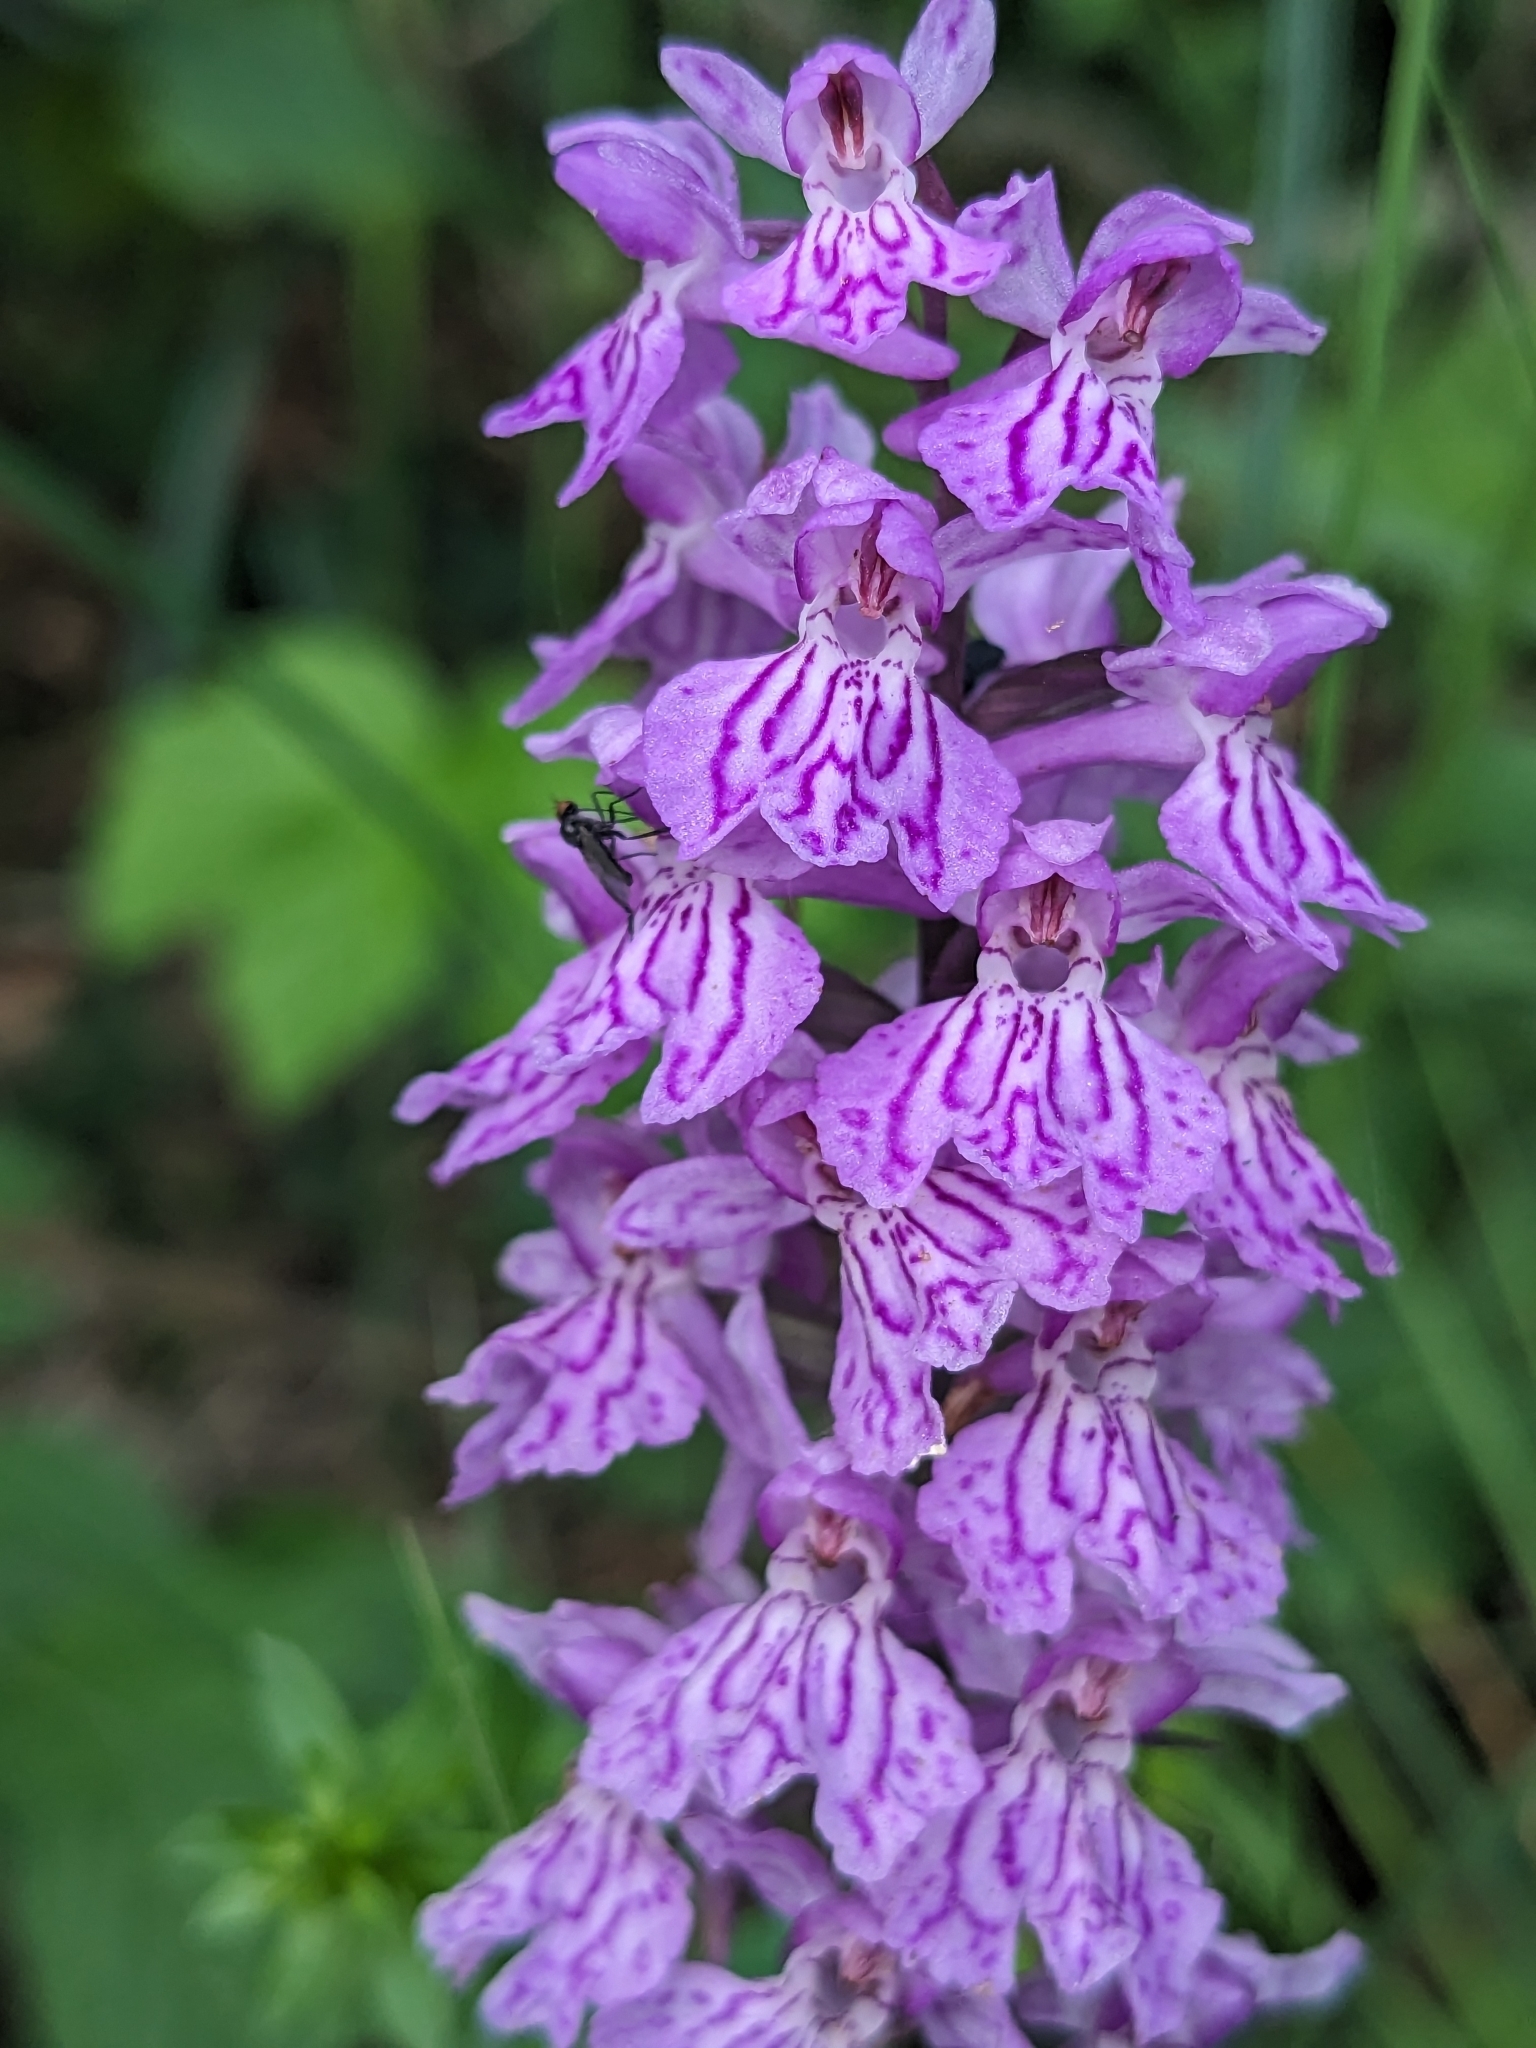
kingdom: Plantae
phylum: Tracheophyta
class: Liliopsida
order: Asparagales
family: Orchidaceae
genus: Dactylorhiza
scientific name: Dactylorhiza maculata
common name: Heath spotted-orchid
